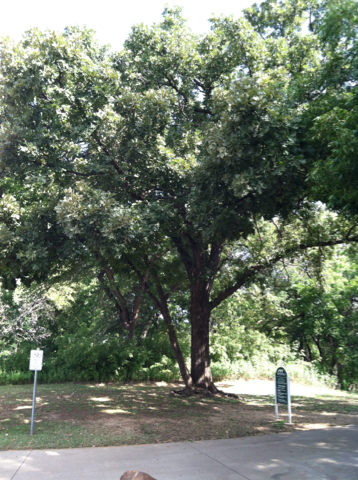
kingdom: Plantae
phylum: Tracheophyta
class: Magnoliopsida
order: Fagales
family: Fagaceae
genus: Quercus
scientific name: Quercus stellata
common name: Post oak
